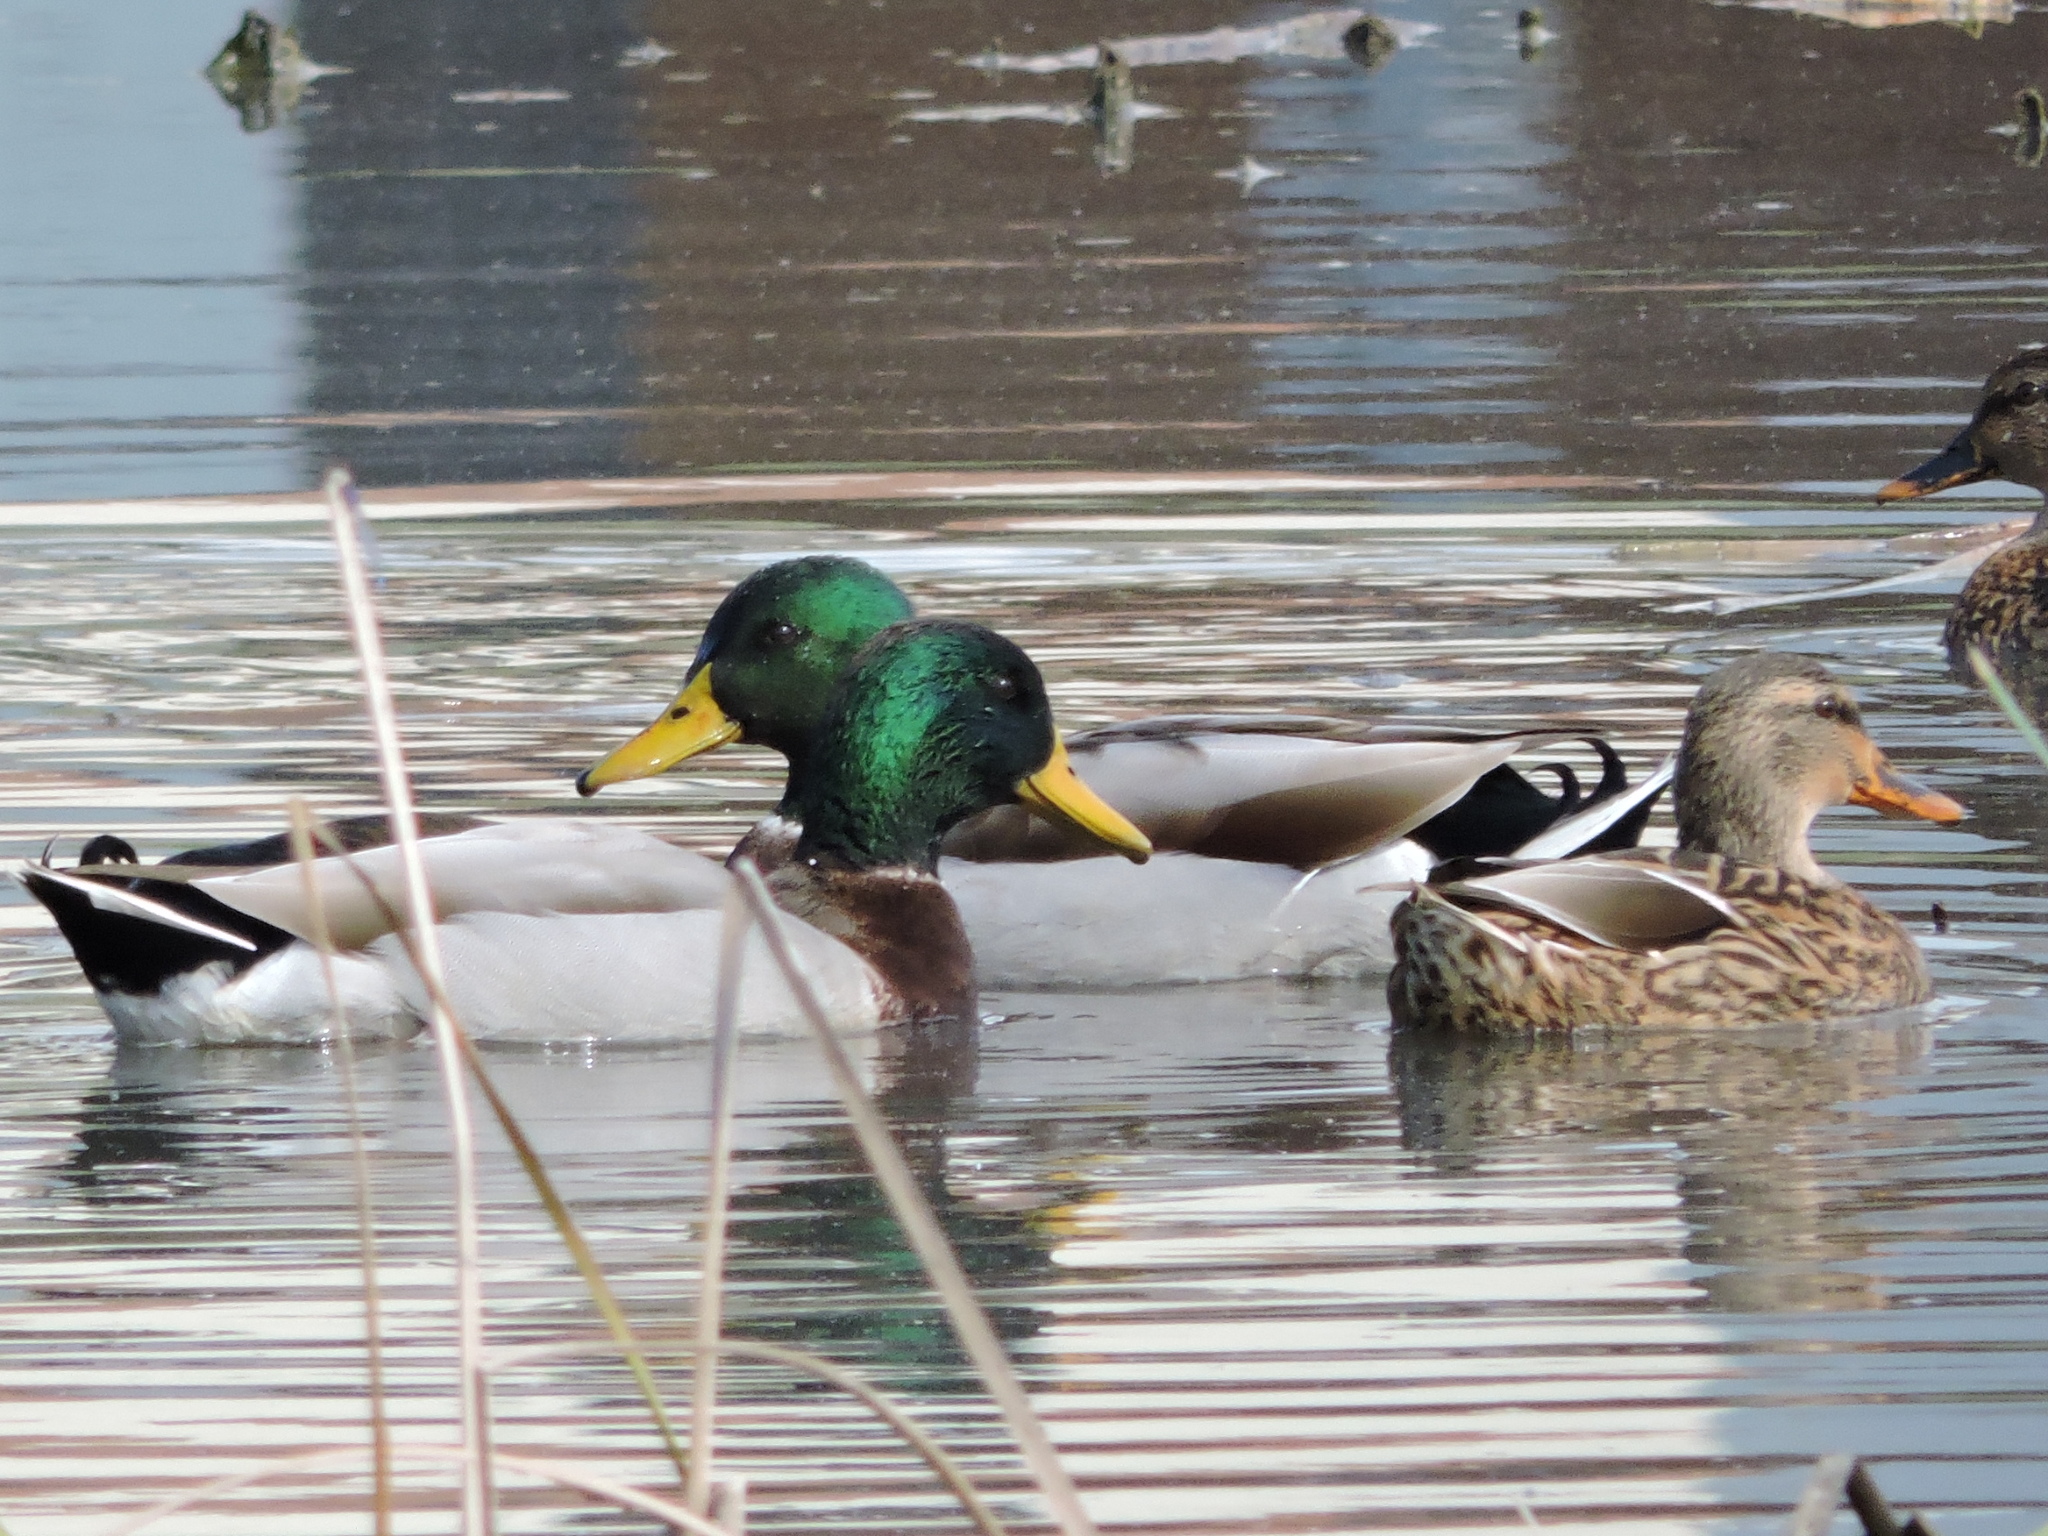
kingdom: Animalia
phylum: Chordata
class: Aves
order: Anseriformes
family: Anatidae
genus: Anas
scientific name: Anas platyrhynchos
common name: Mallard
